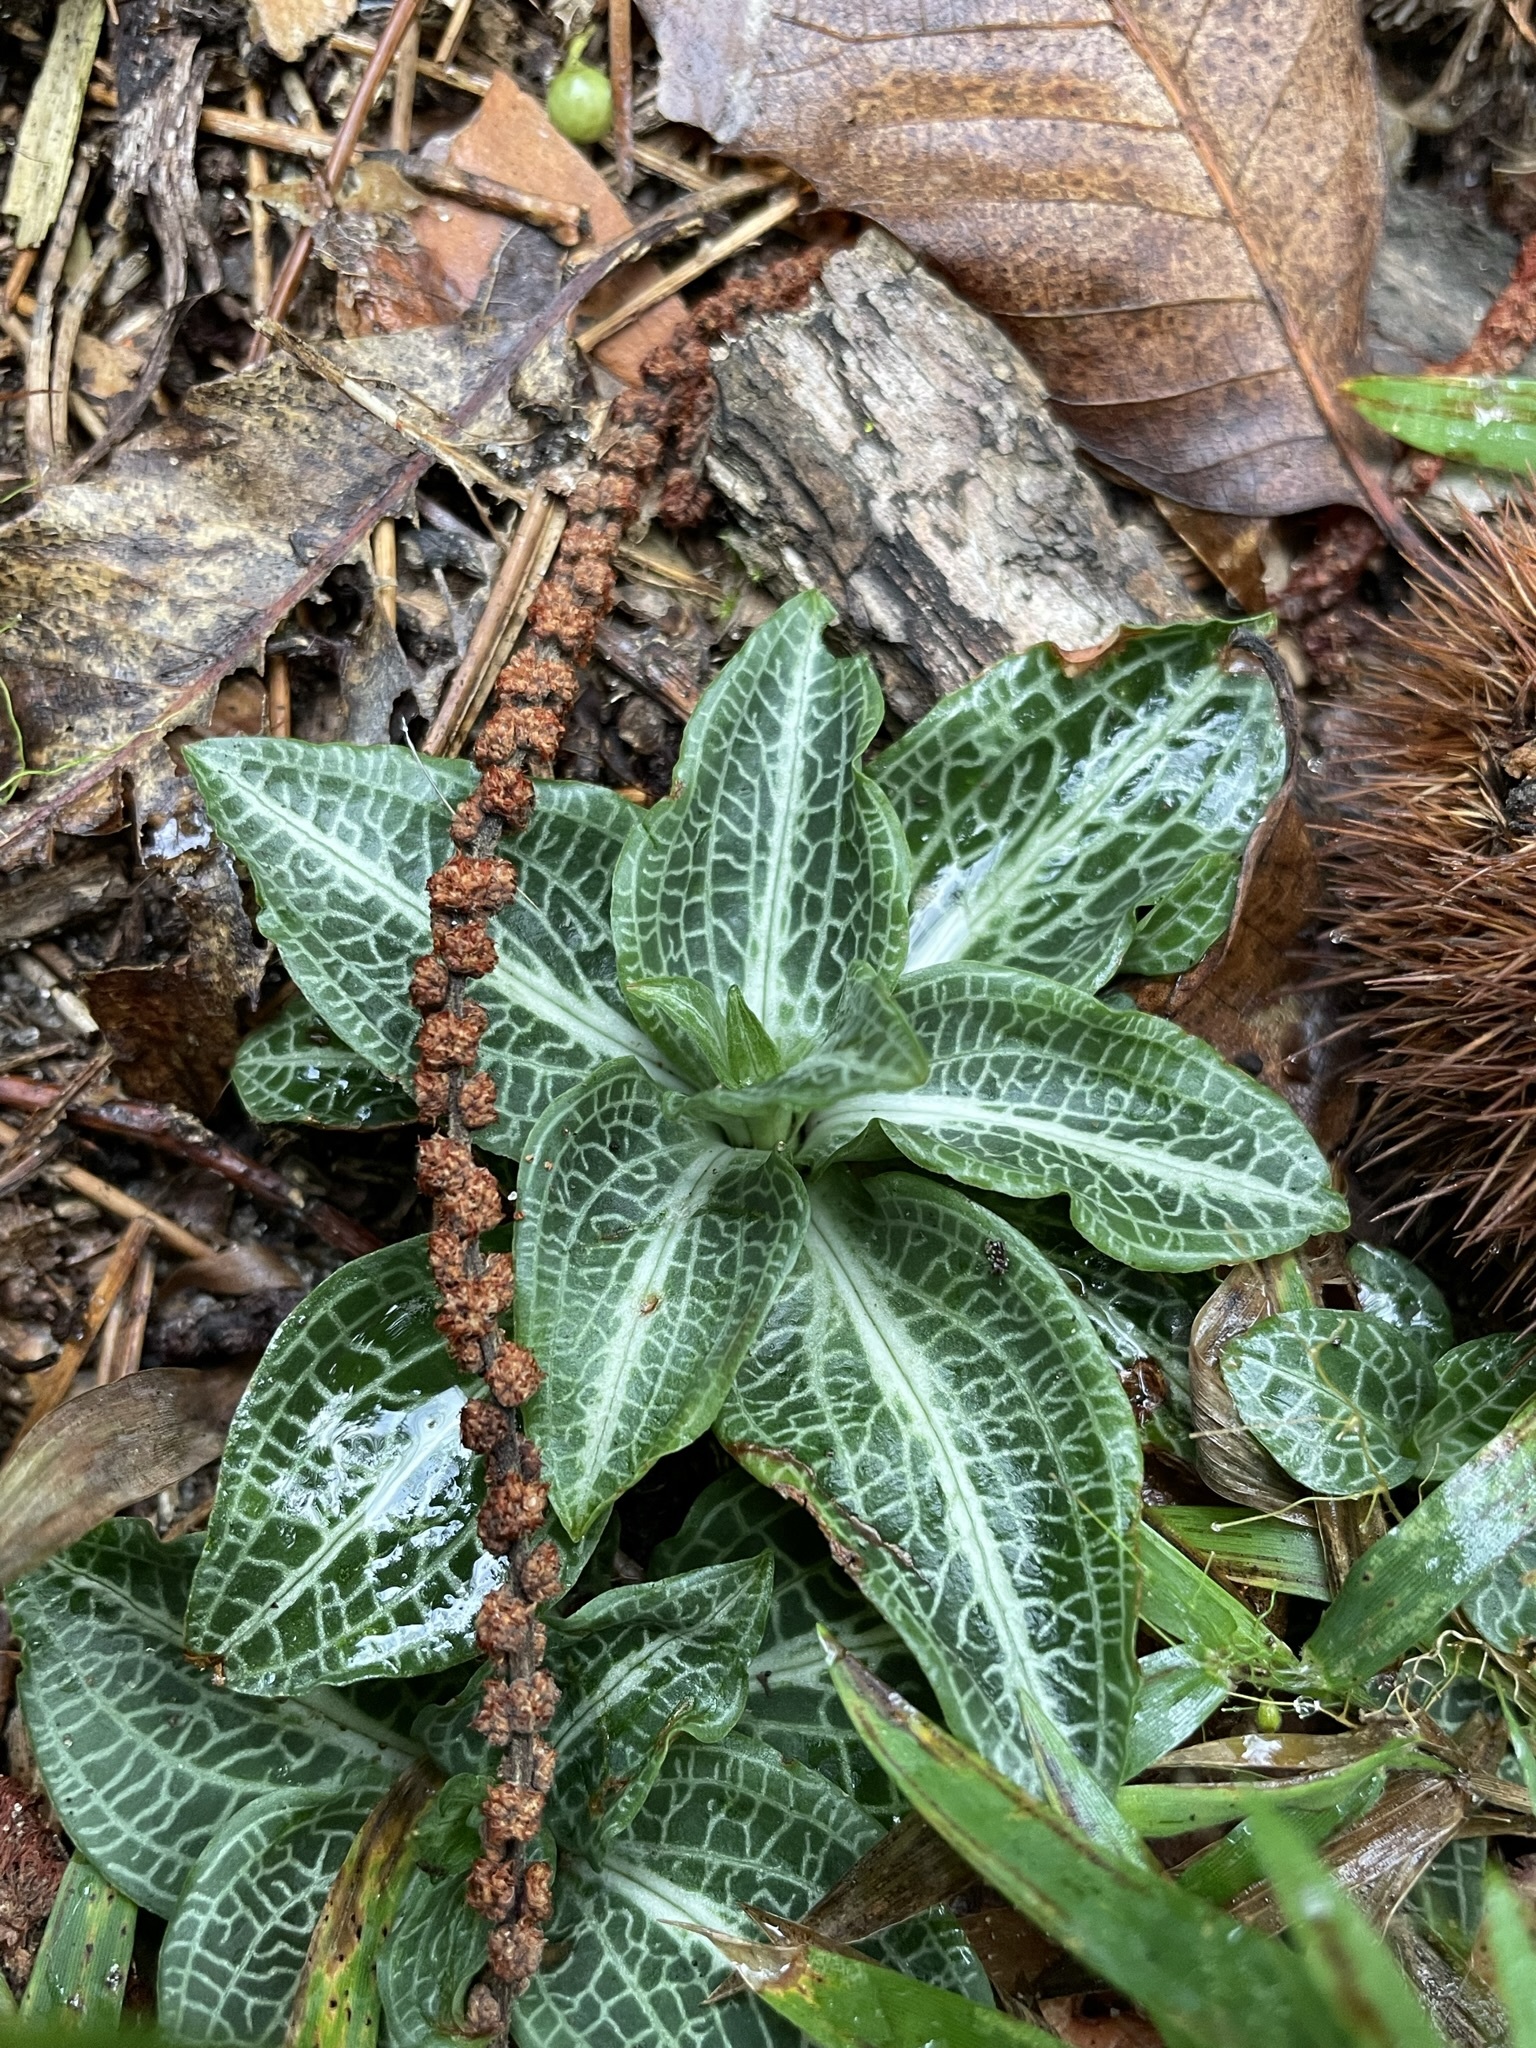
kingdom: Plantae
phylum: Tracheophyta
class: Liliopsida
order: Asparagales
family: Orchidaceae
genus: Goodyera
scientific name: Goodyera pubescens
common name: Downy rattlesnake-plantain
